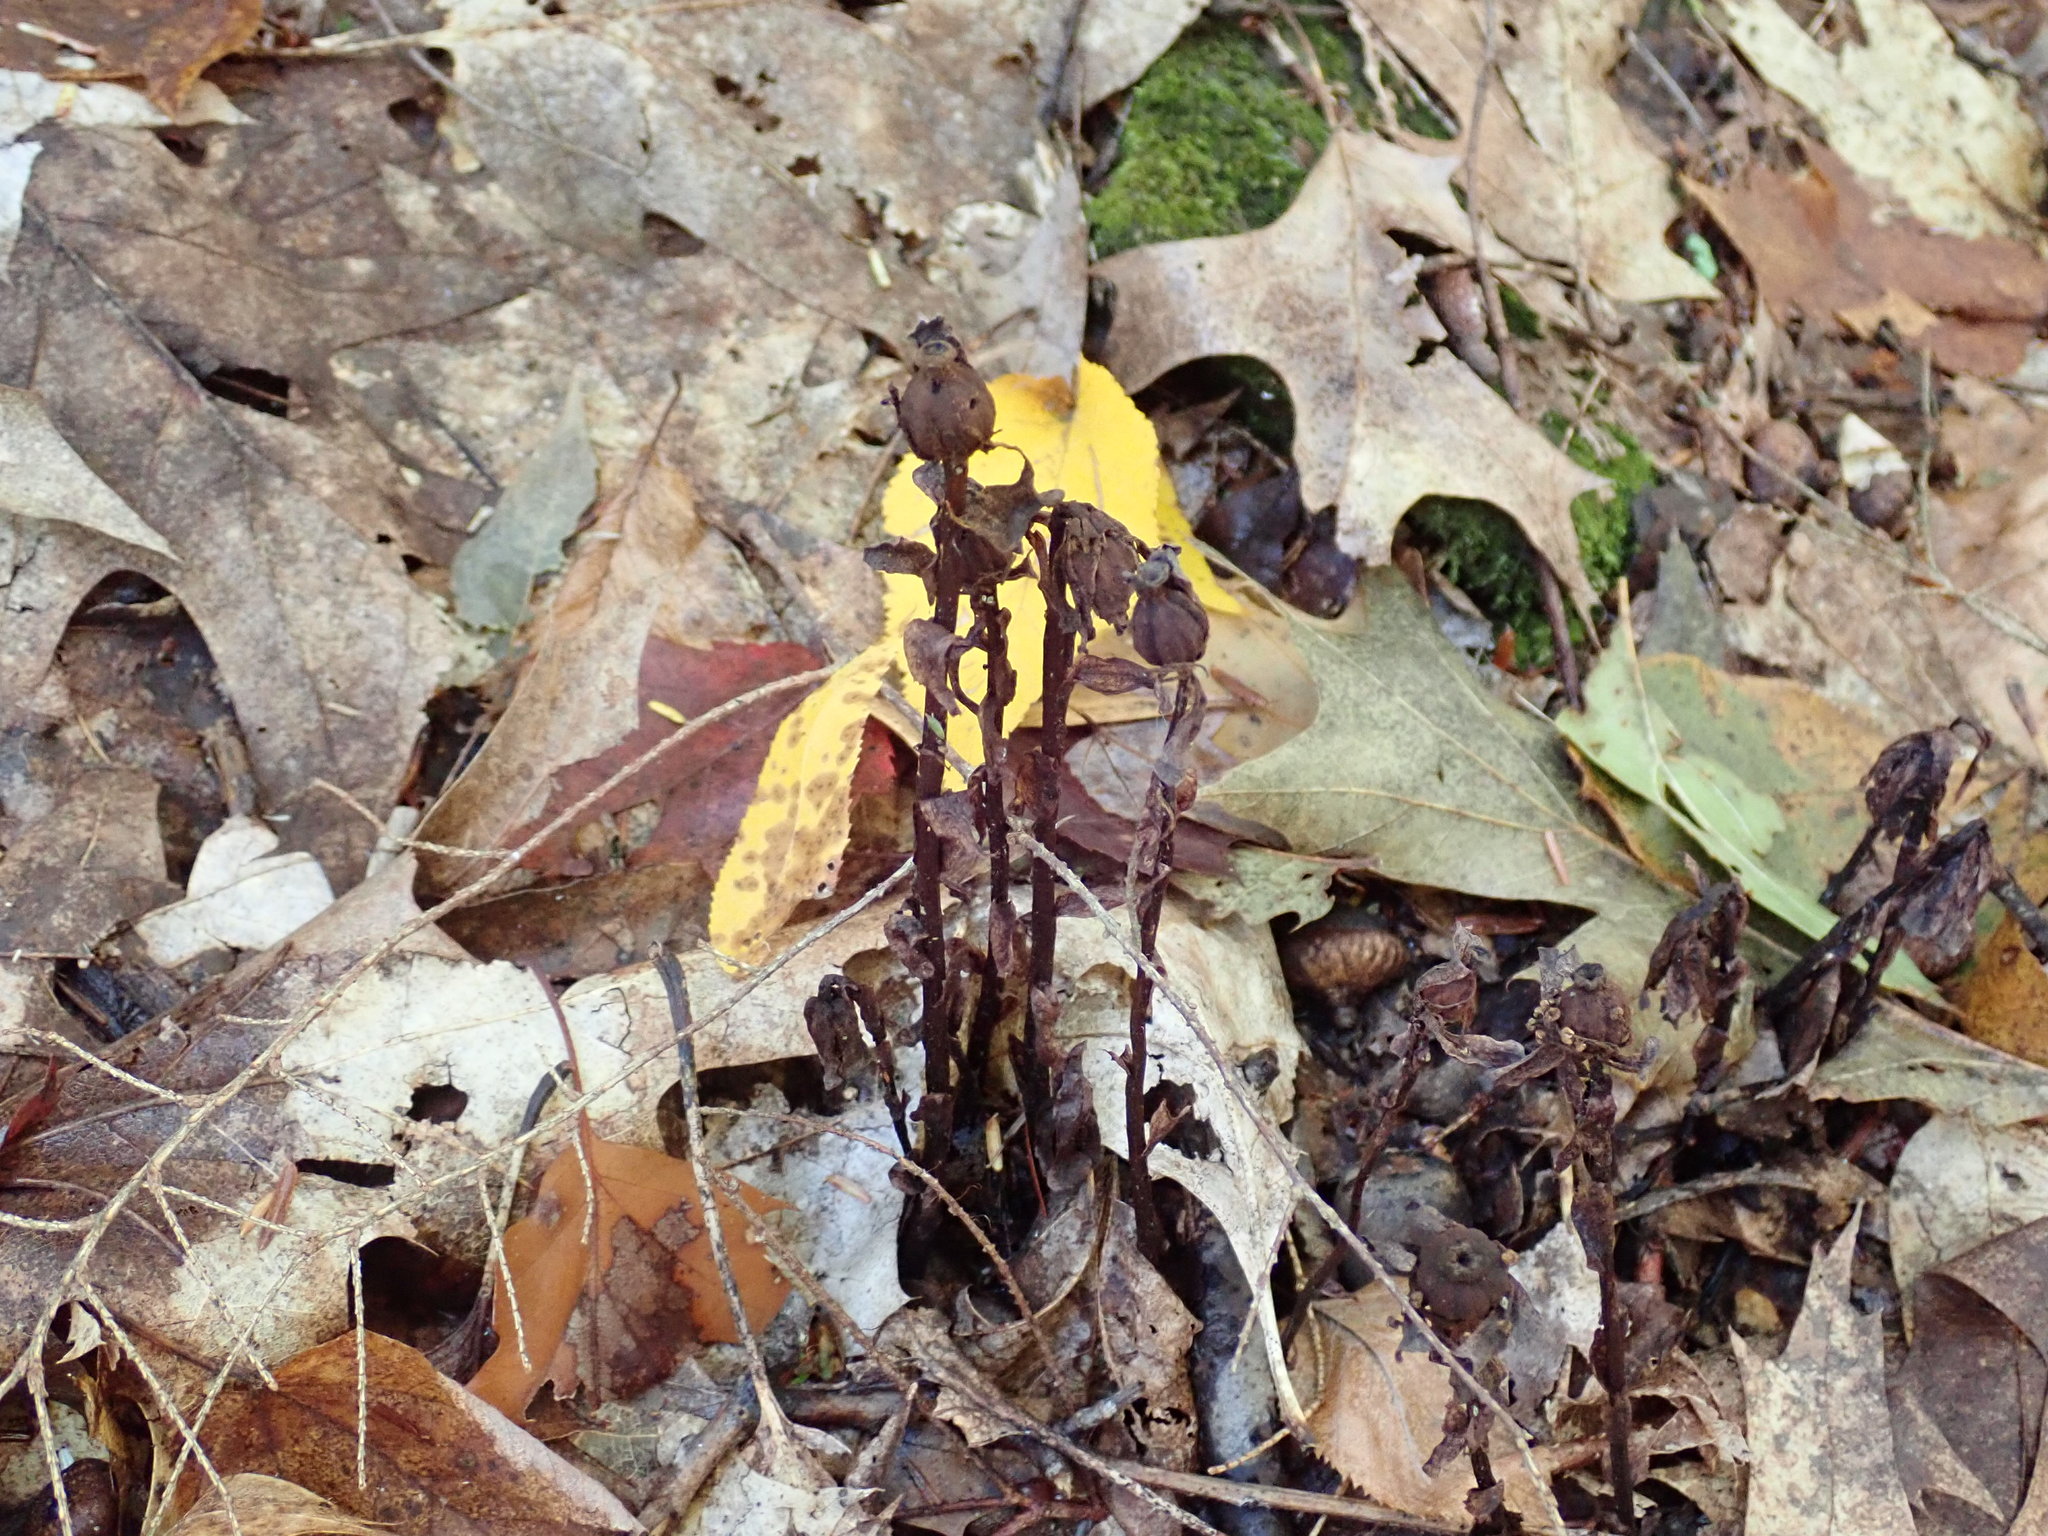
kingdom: Plantae
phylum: Tracheophyta
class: Magnoliopsida
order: Ericales
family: Ericaceae
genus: Monotropa
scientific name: Monotropa uniflora
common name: Convulsion root
